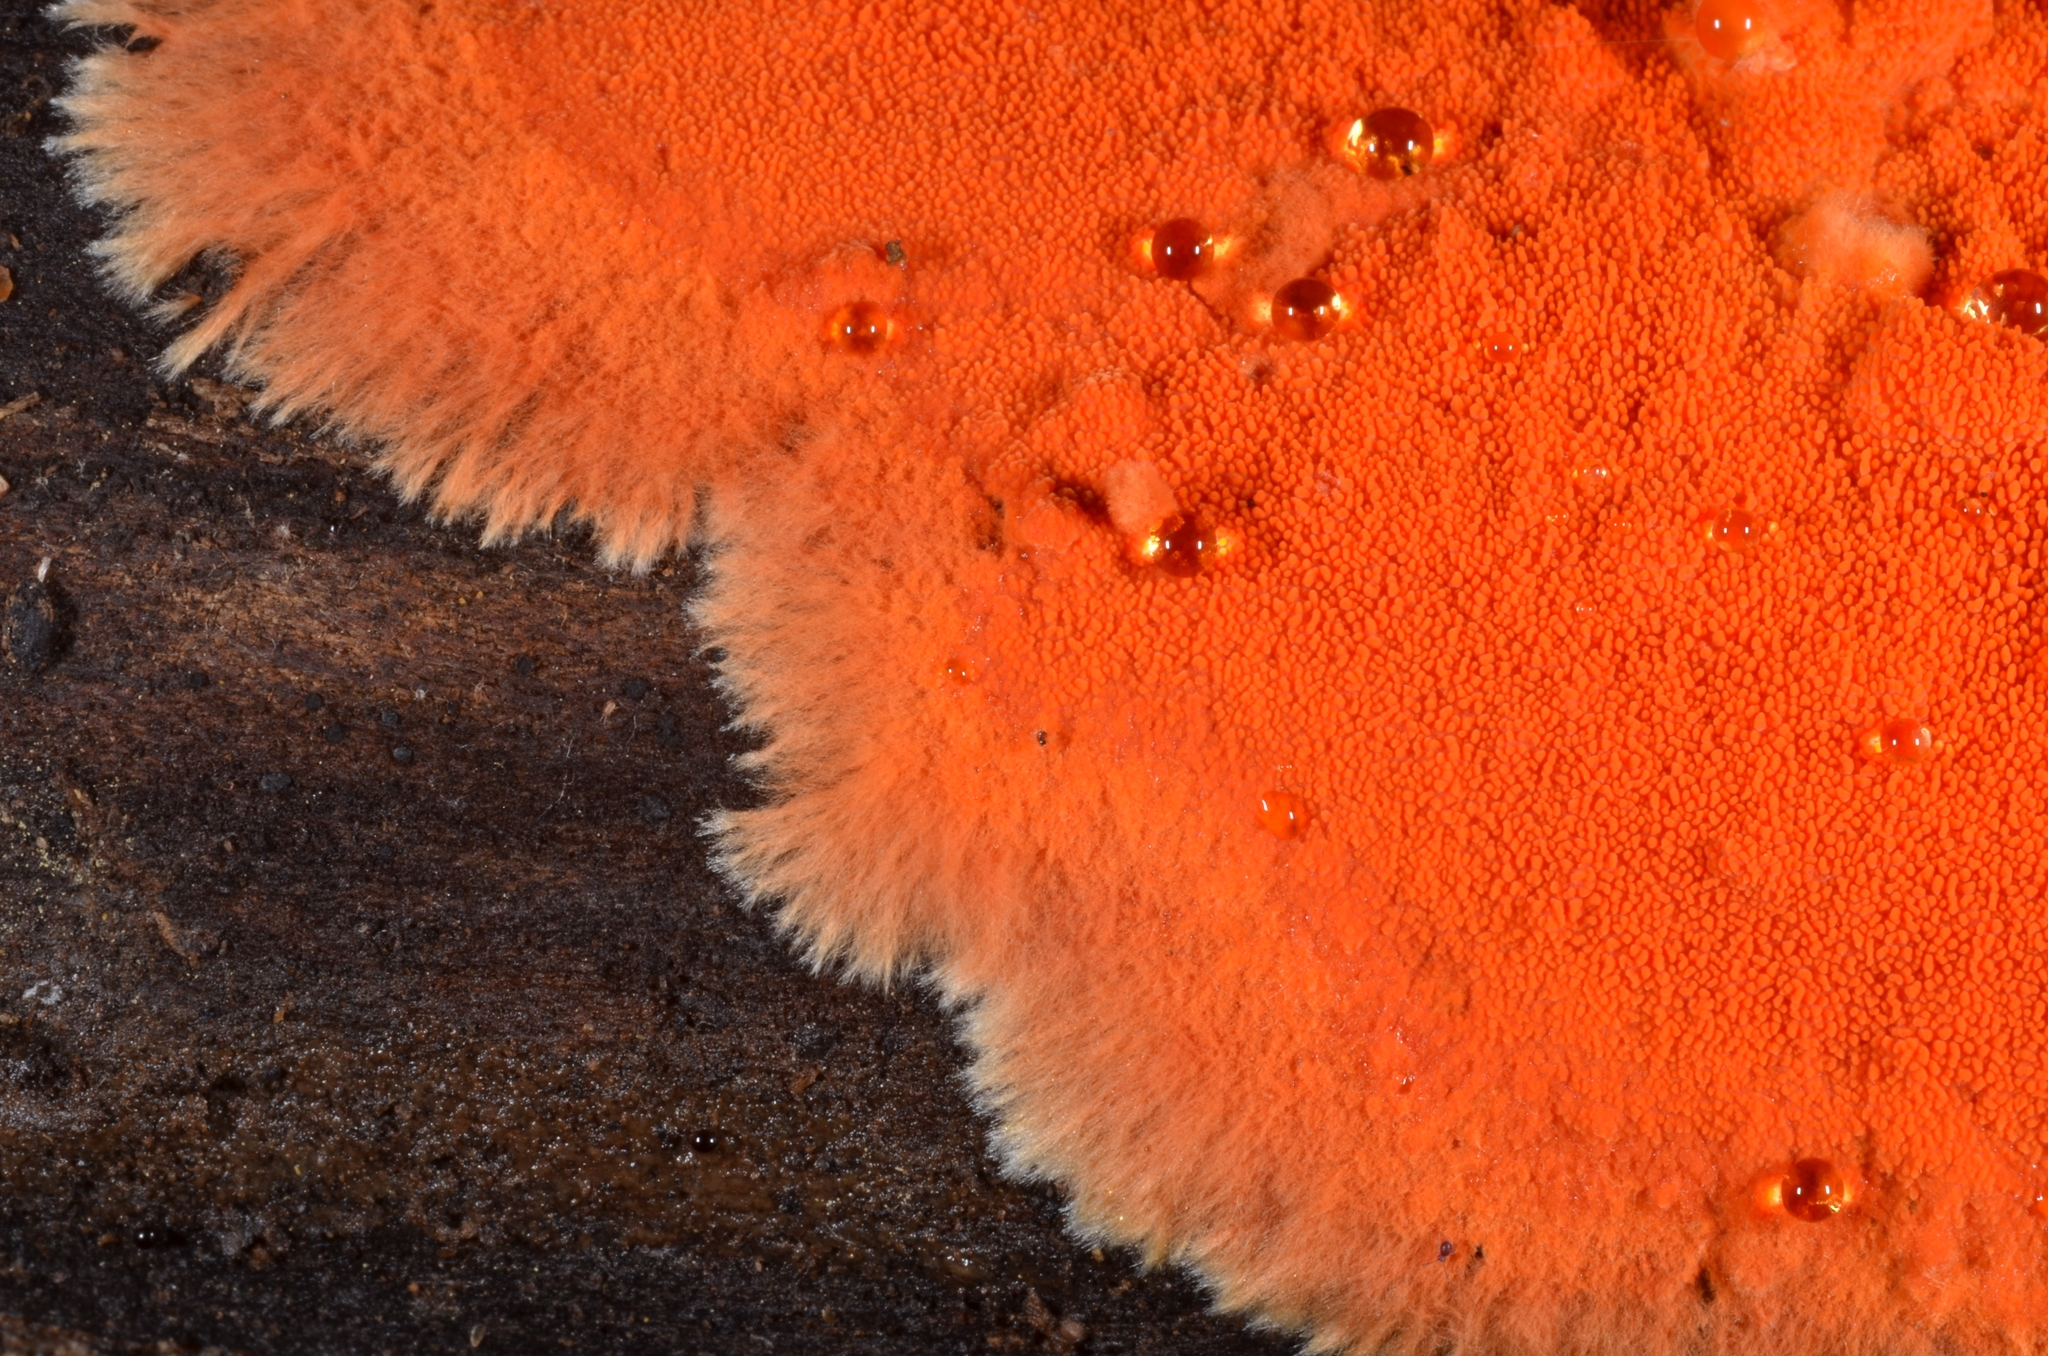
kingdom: Fungi
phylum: Basidiomycota
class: Agaricomycetes
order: Polyporales
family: Meruliaceae
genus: Hydnophlebia
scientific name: Hydnophlebia chrysorhiza
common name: Spreading yellow tooth
